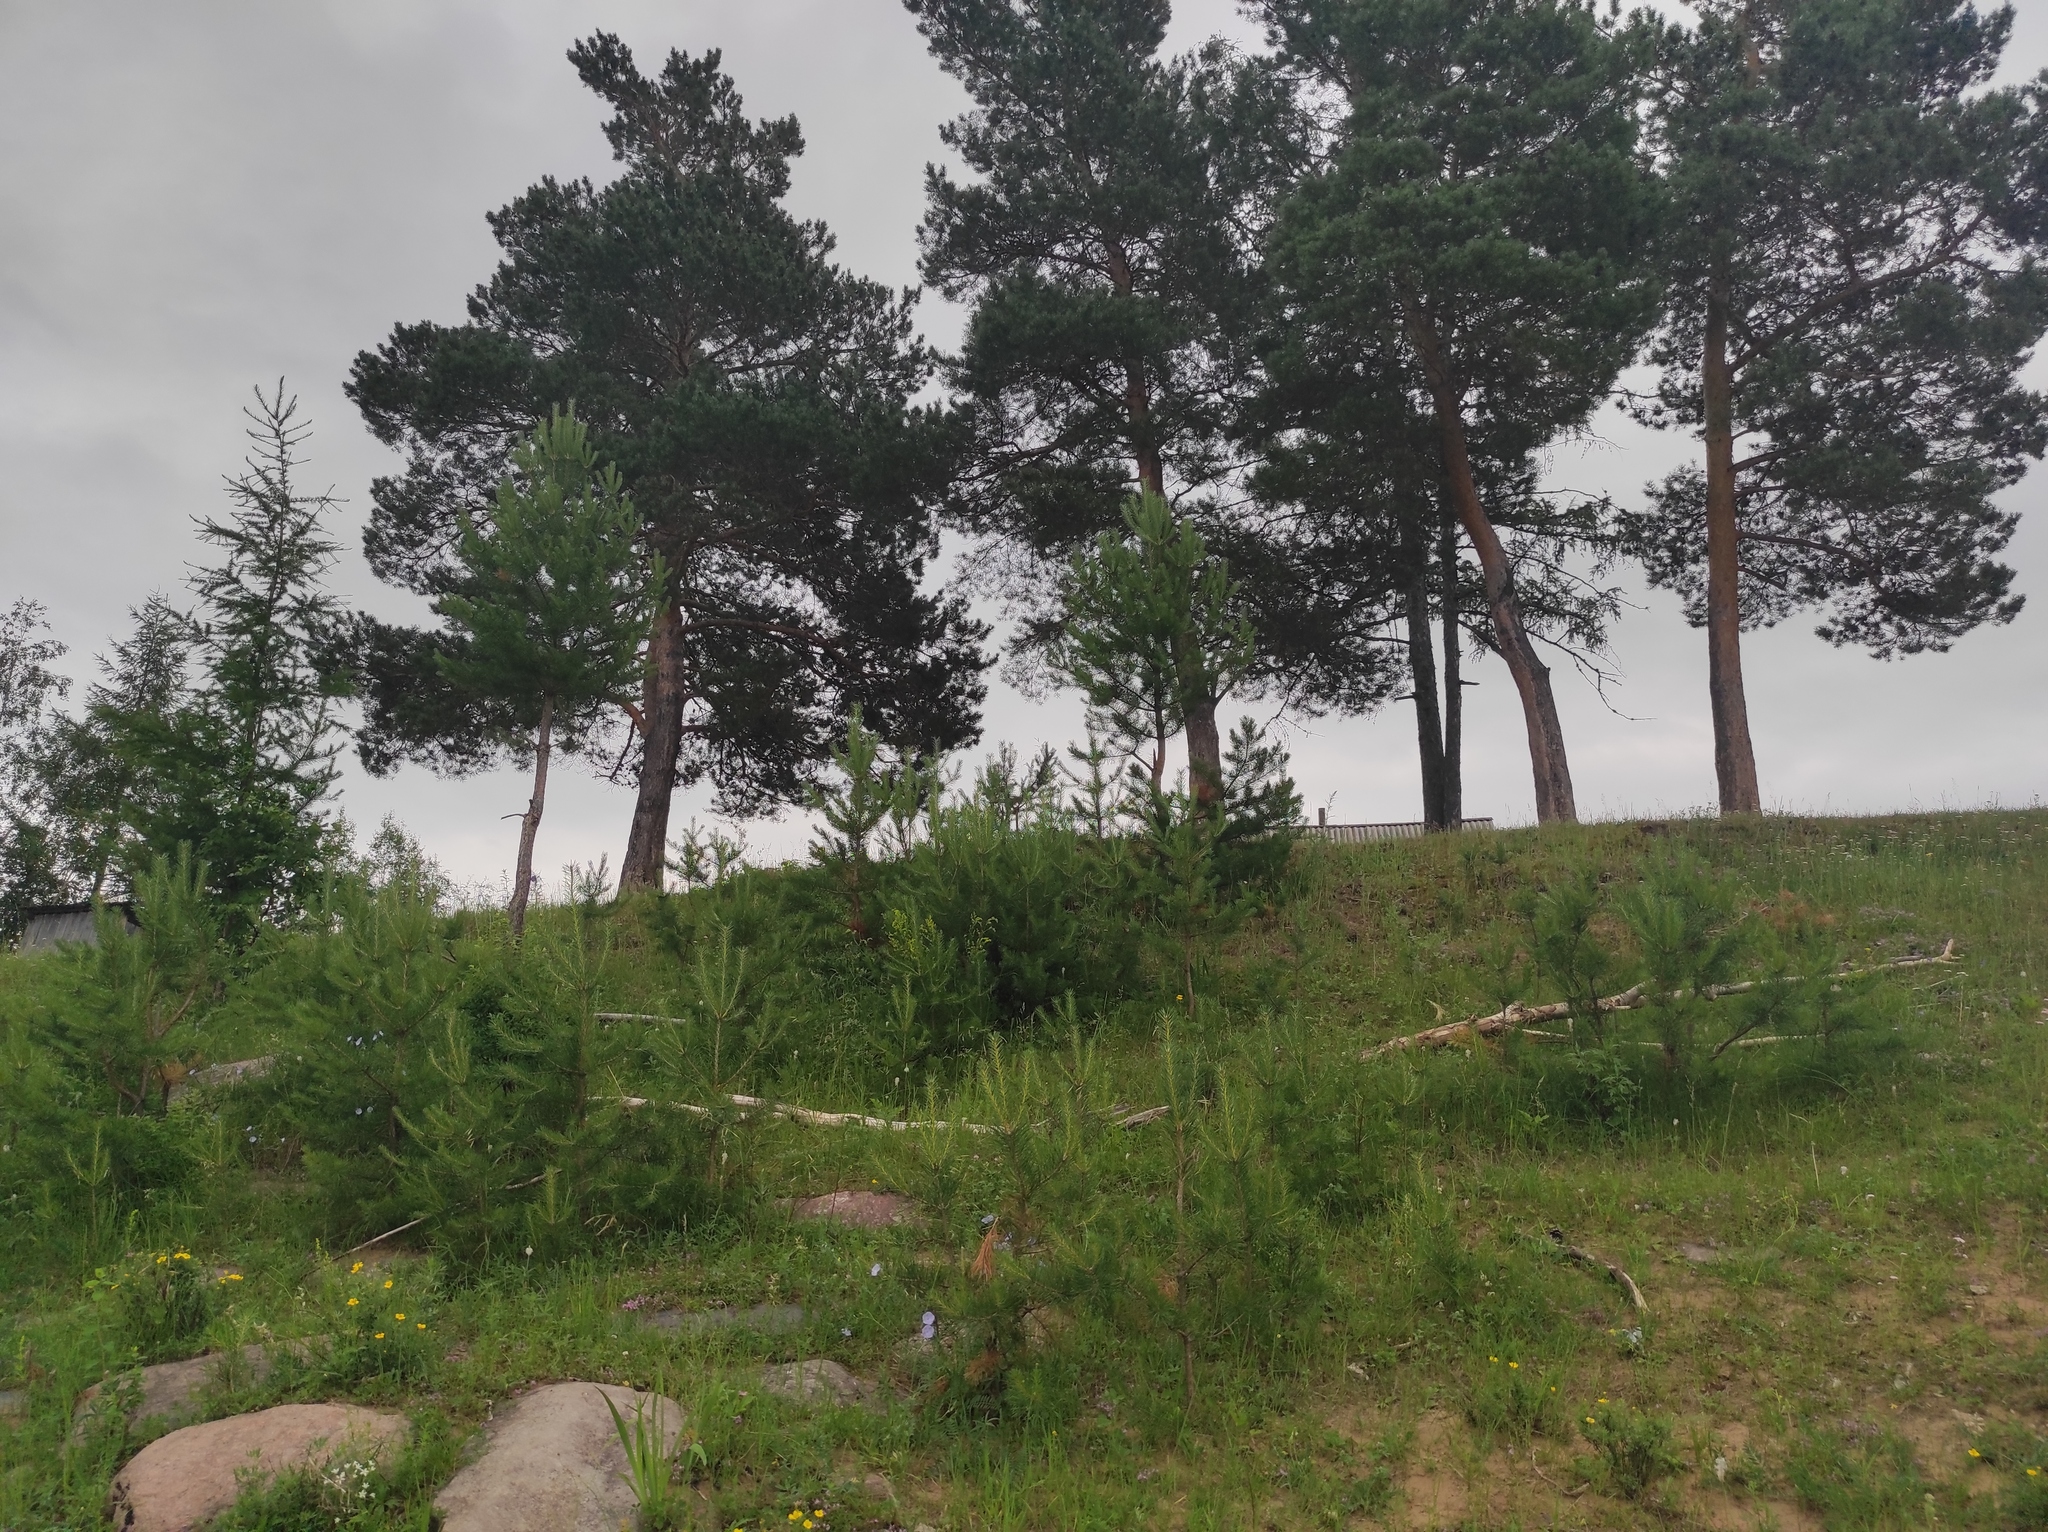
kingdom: Plantae
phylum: Tracheophyta
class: Pinopsida
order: Pinales
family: Pinaceae
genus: Pinus
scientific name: Pinus sylvestris
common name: Scots pine
